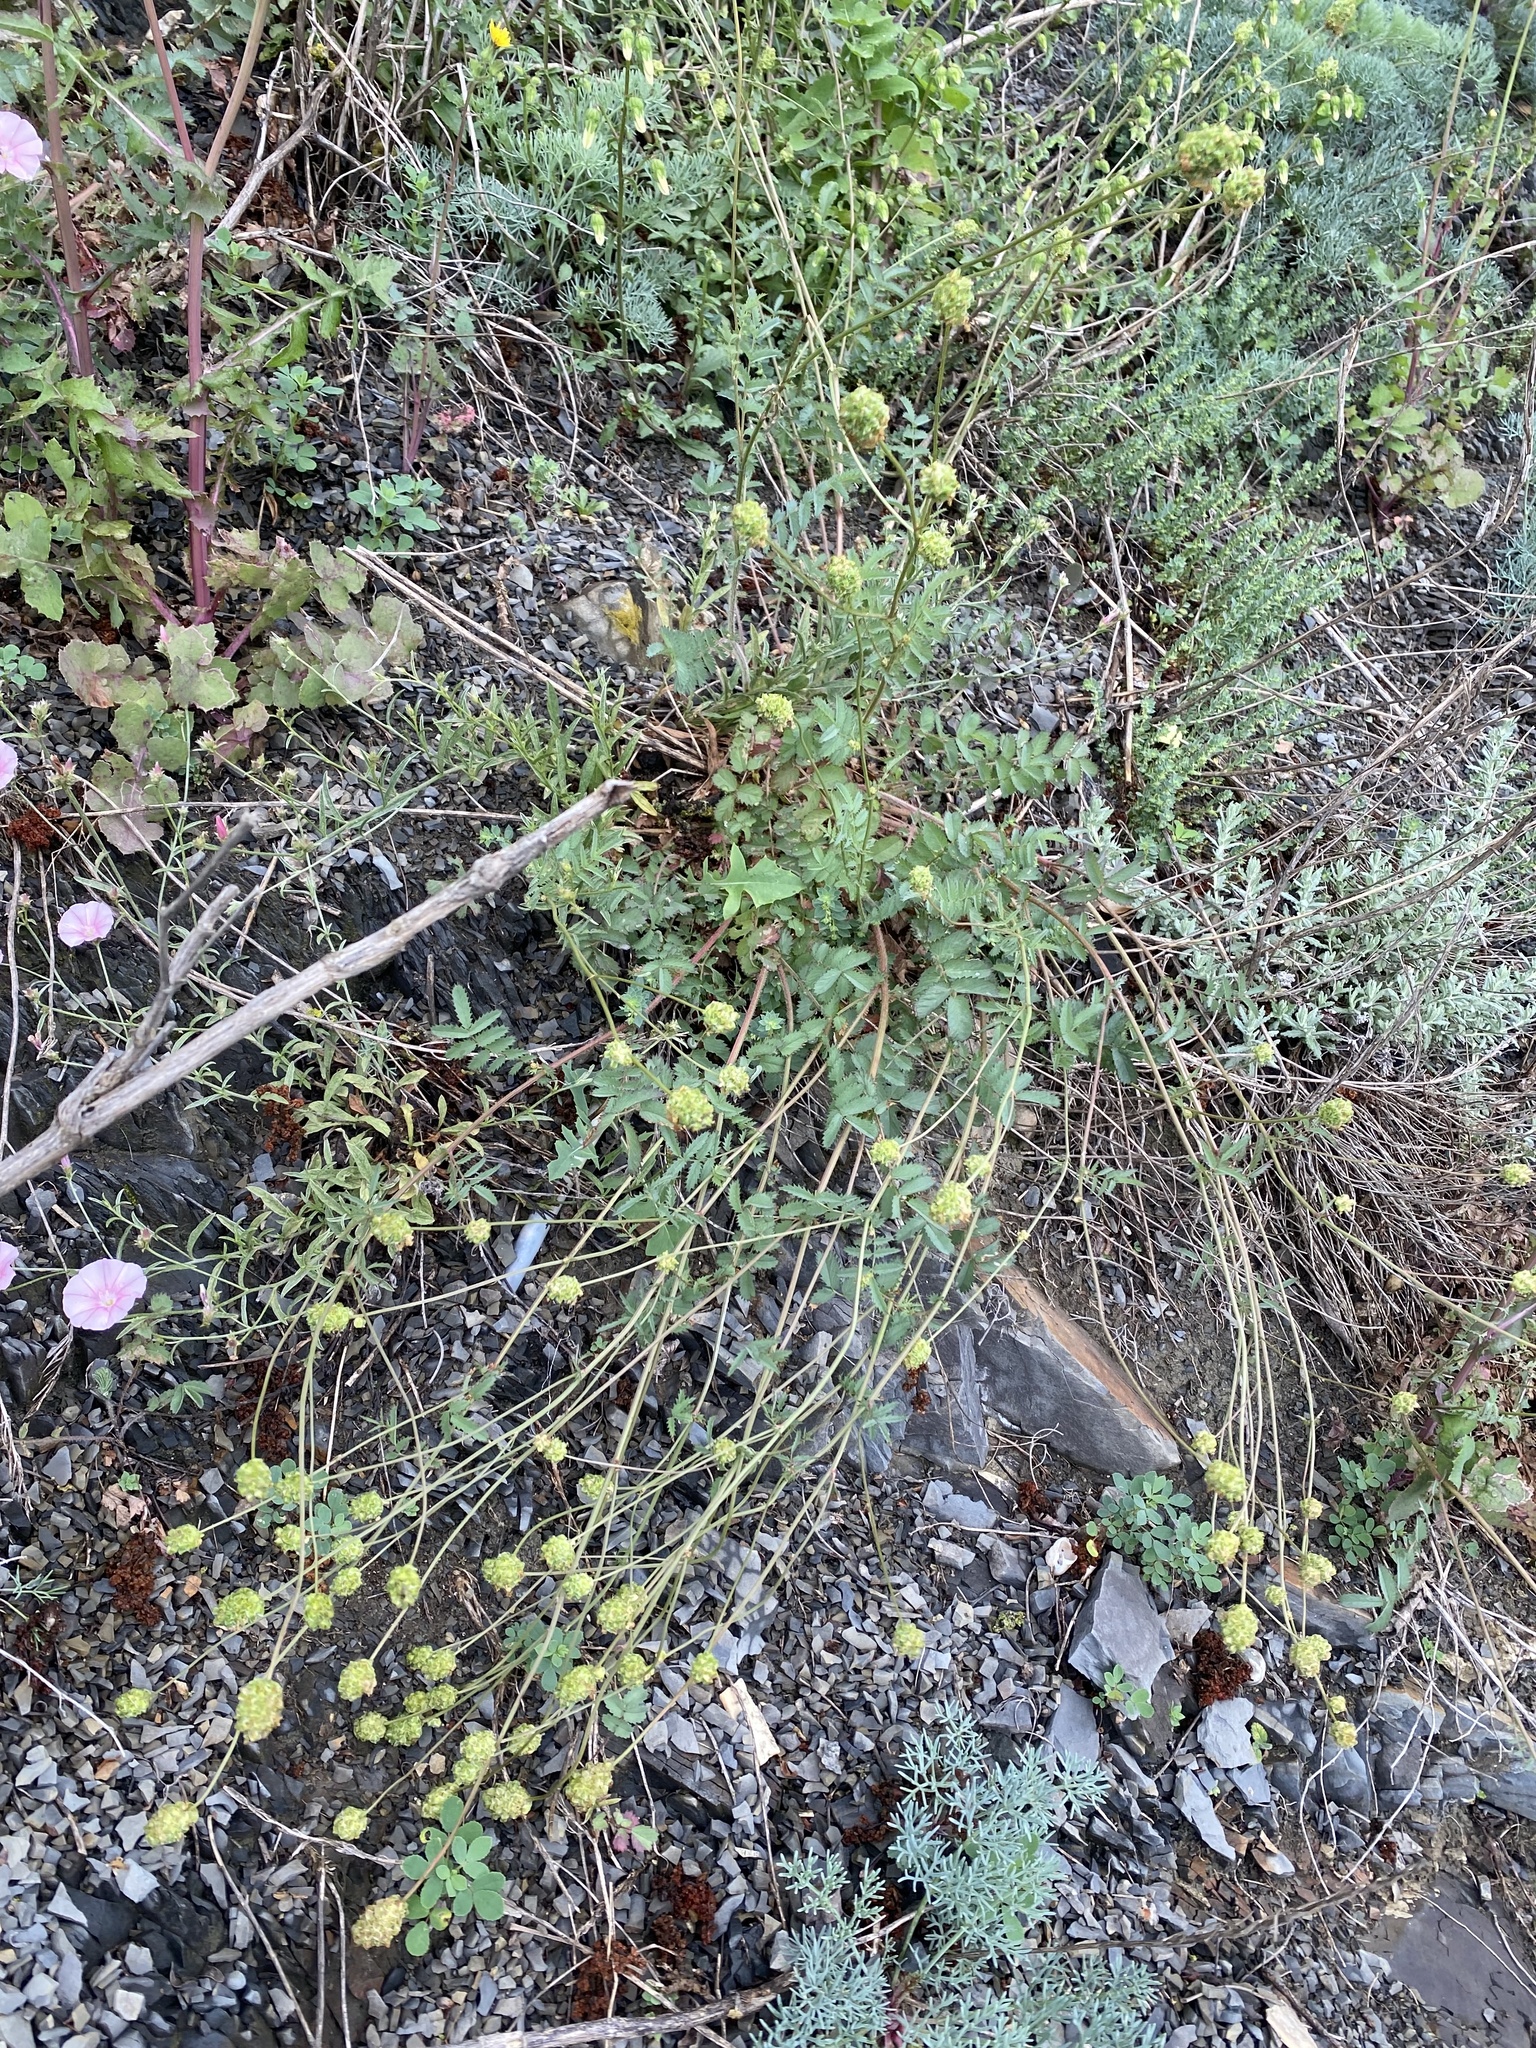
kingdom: Plantae
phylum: Tracheophyta
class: Magnoliopsida
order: Rosales
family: Rosaceae
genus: Poterium
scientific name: Poterium sanguisorba
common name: Salad burnet
